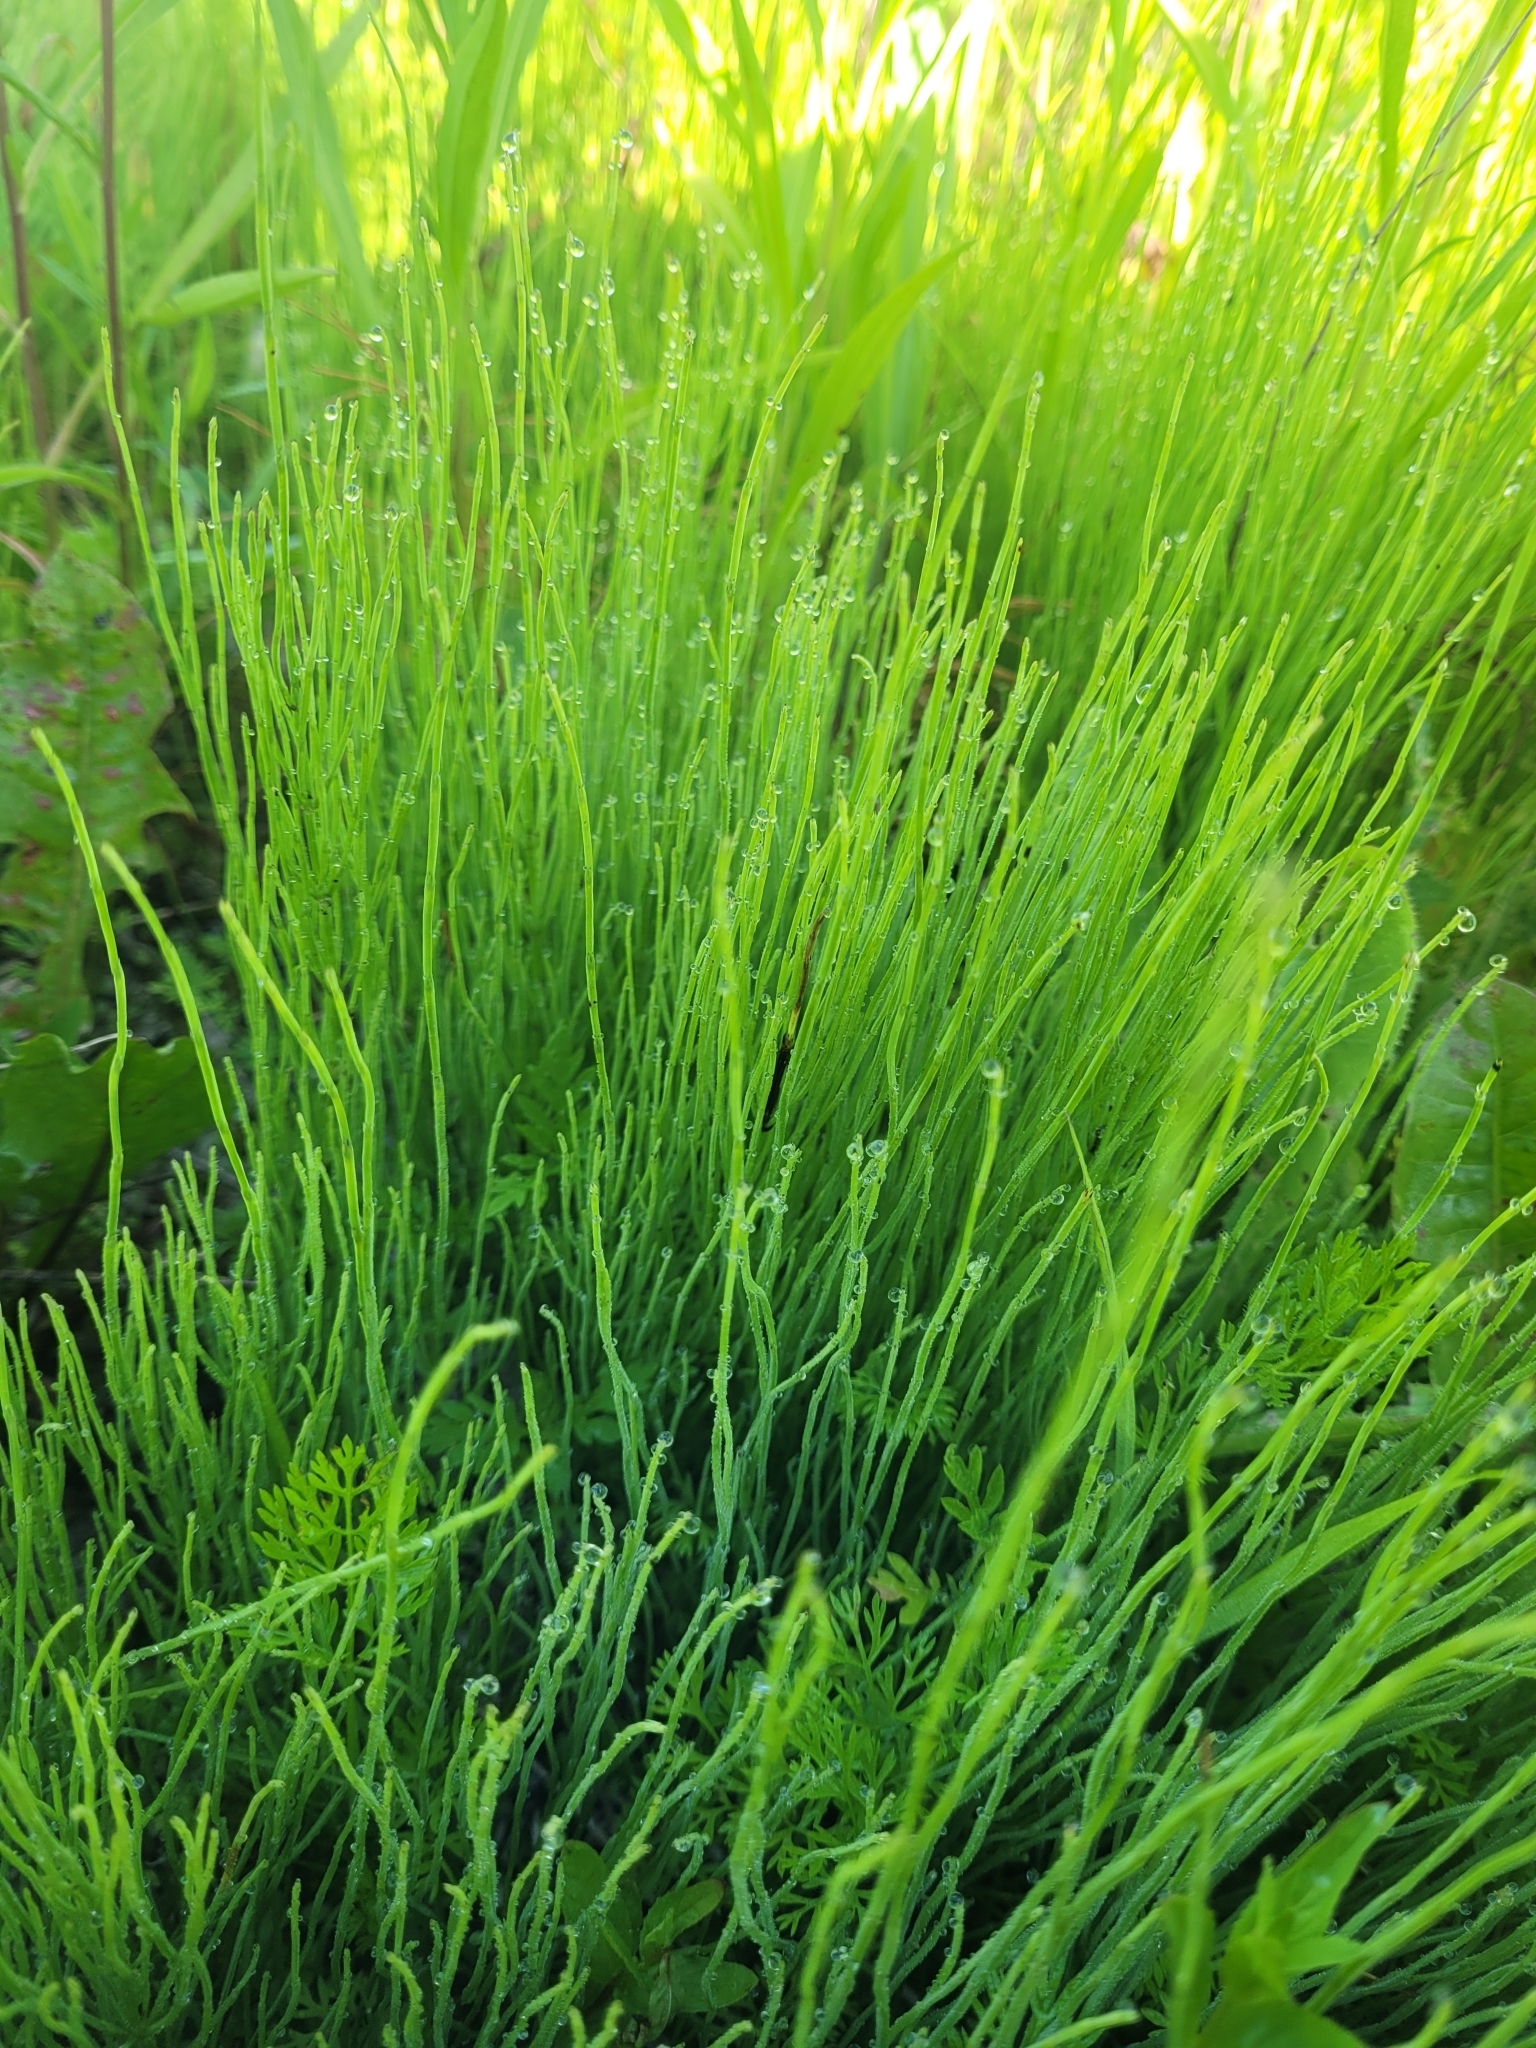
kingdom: Plantae
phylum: Tracheophyta
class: Polypodiopsida
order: Equisetales
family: Equisetaceae
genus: Equisetum
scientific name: Equisetum arvense
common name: Field horsetail
